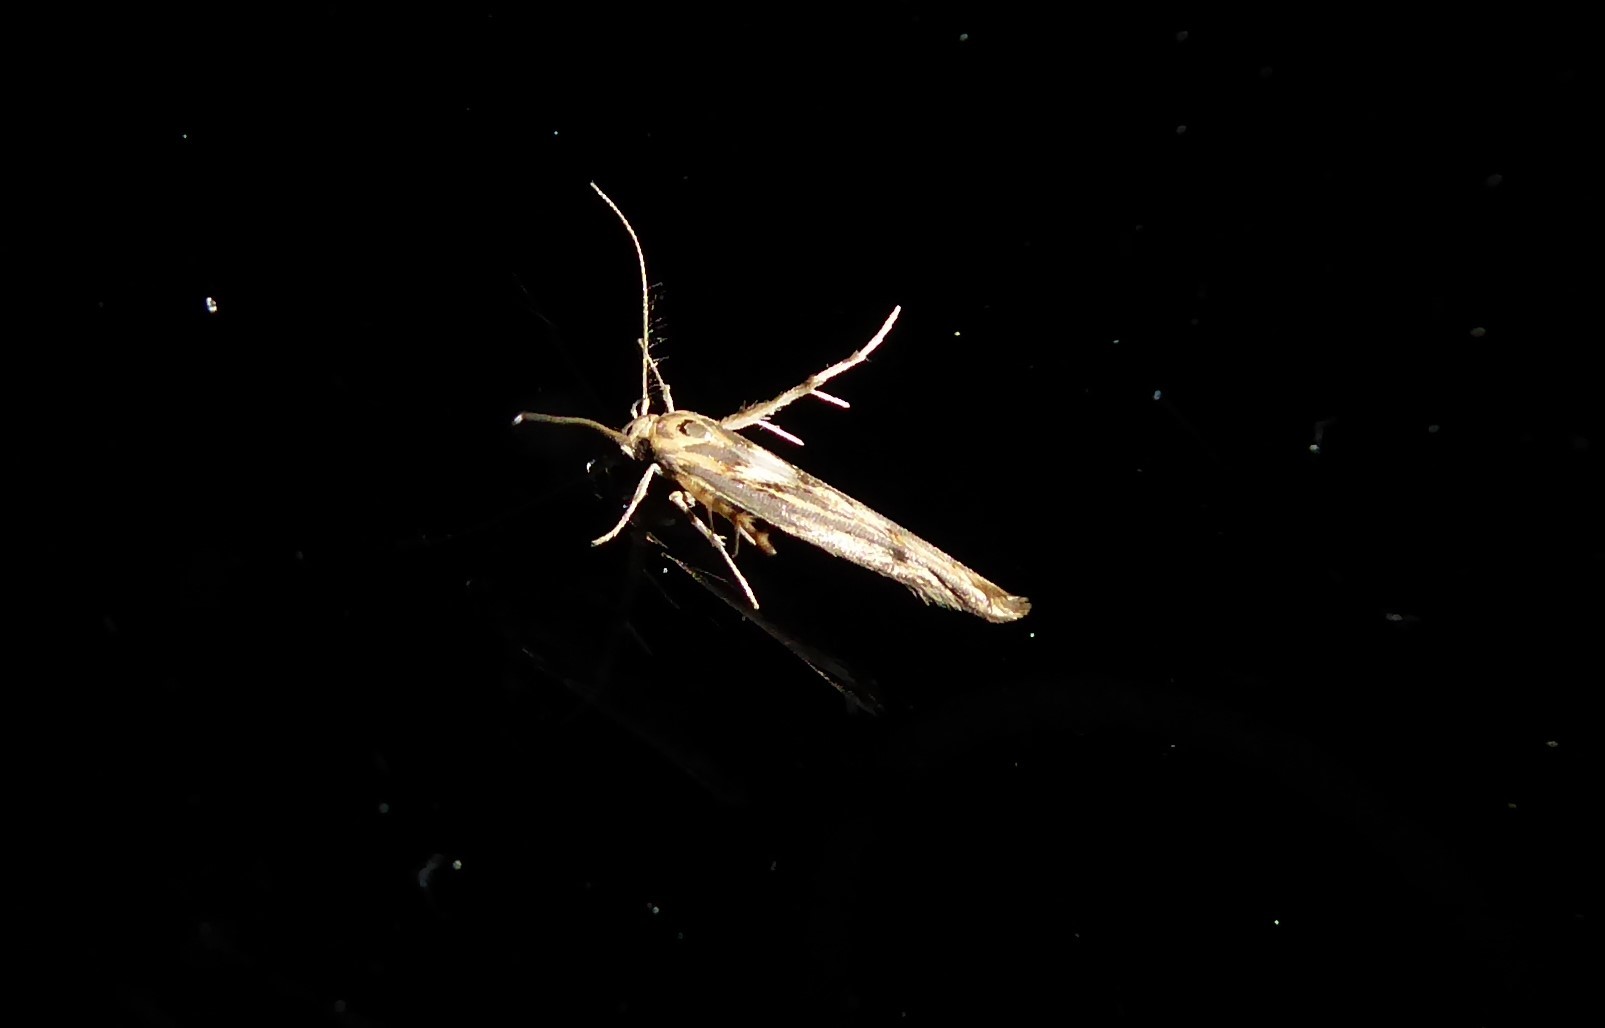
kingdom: Animalia
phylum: Arthropoda
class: Insecta
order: Lepidoptera
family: Stathmopodidae
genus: Stathmopoda
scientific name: Stathmopoda plumbiflua
